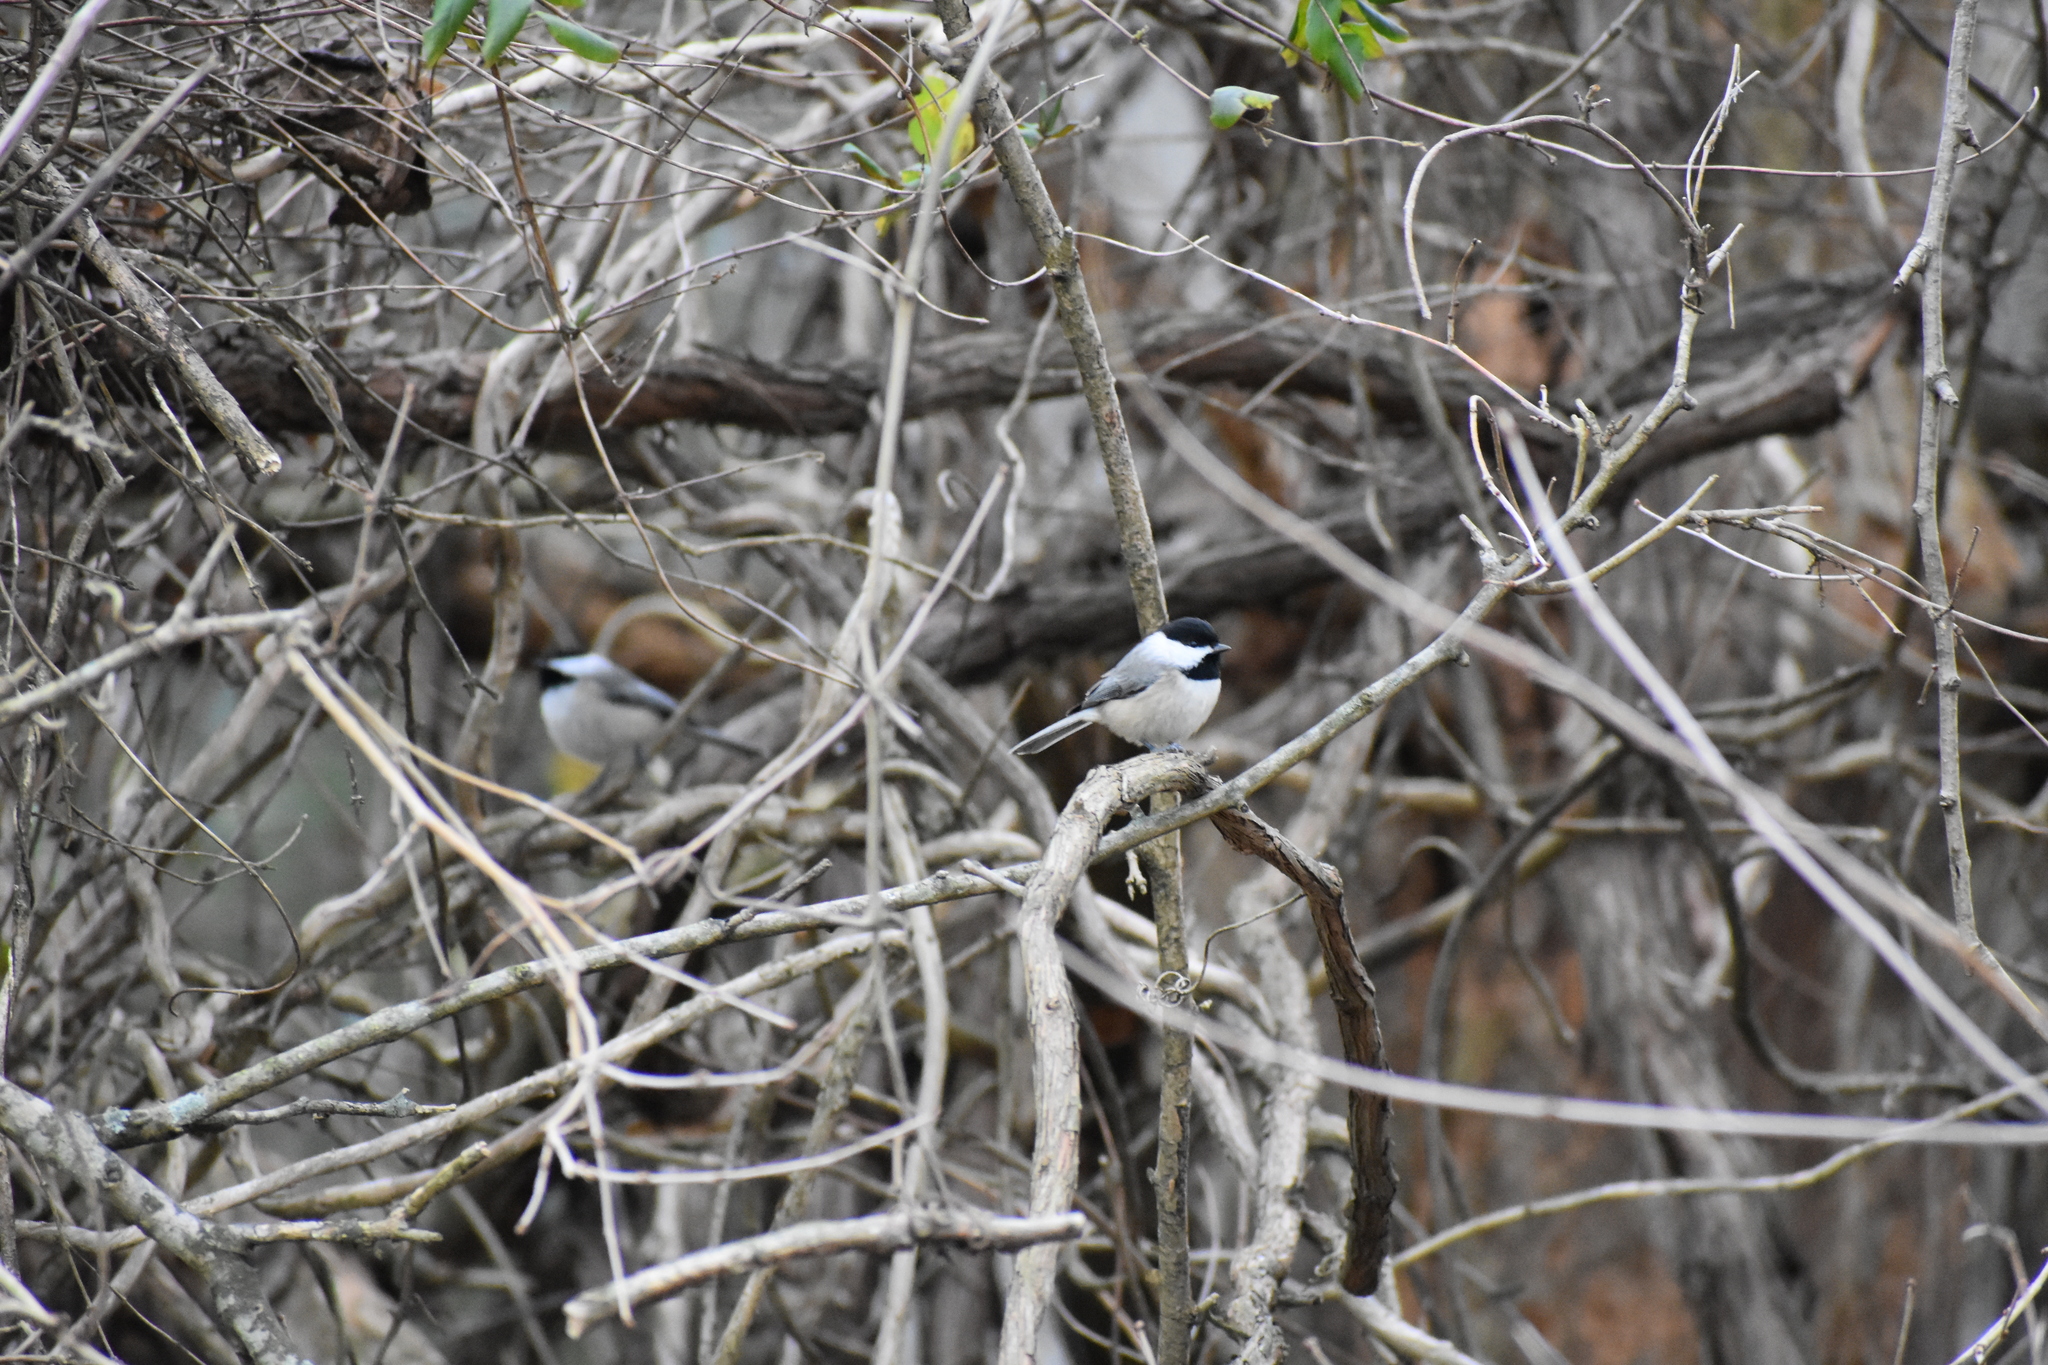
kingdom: Animalia
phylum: Chordata
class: Aves
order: Passeriformes
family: Paridae
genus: Poecile
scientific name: Poecile carolinensis
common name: Carolina chickadee
